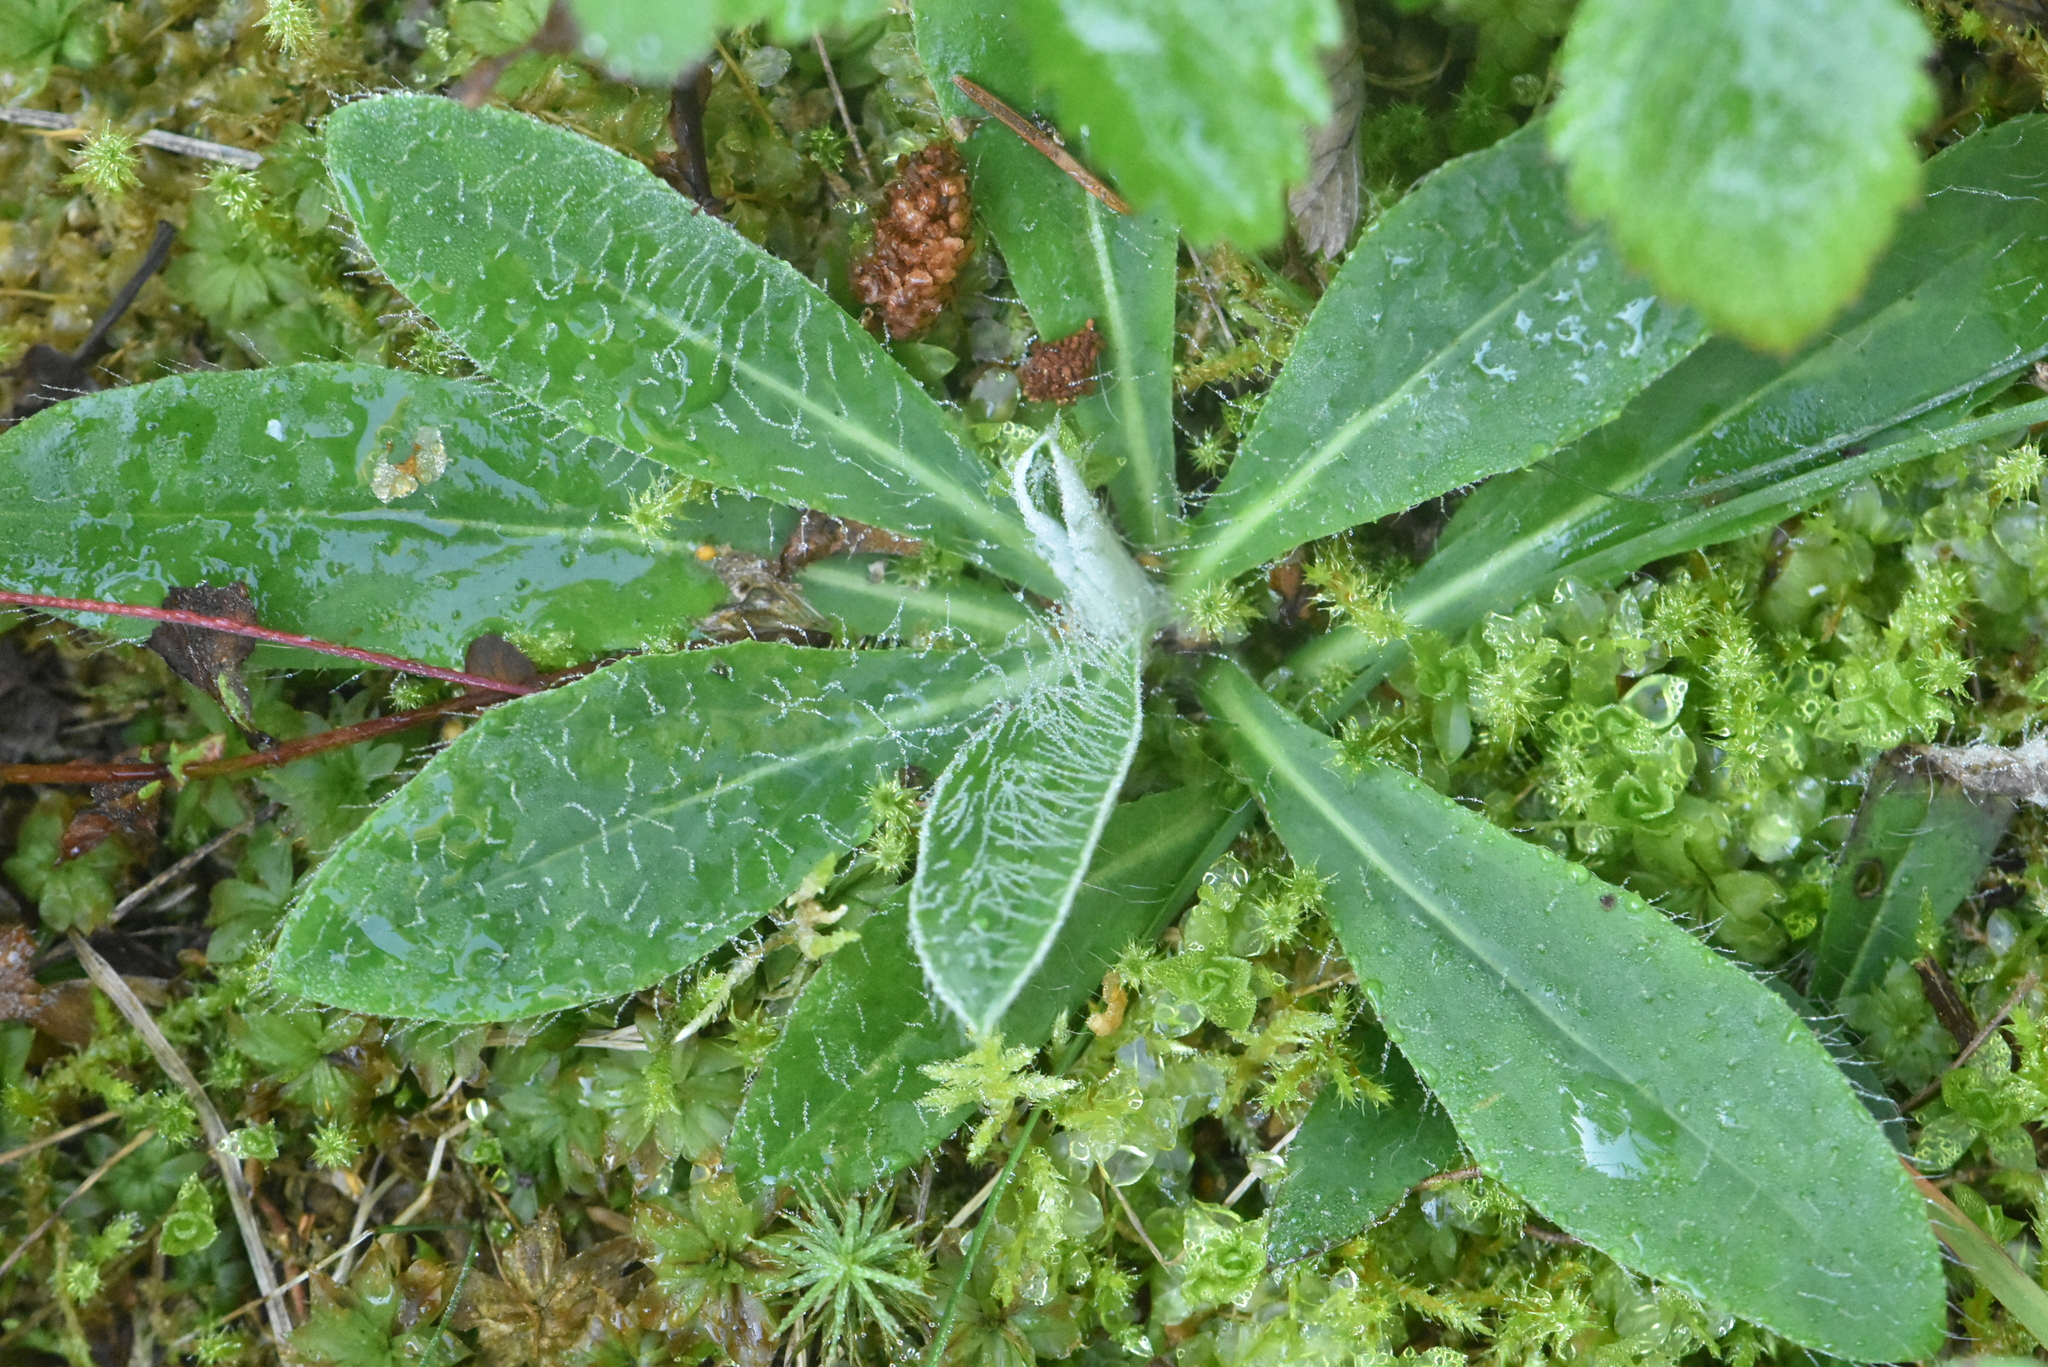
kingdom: Plantae
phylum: Tracheophyta
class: Magnoliopsida
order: Asterales
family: Asteraceae
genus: Pilosella
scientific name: Pilosella officinarum
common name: Mouse-ear hawkweed
